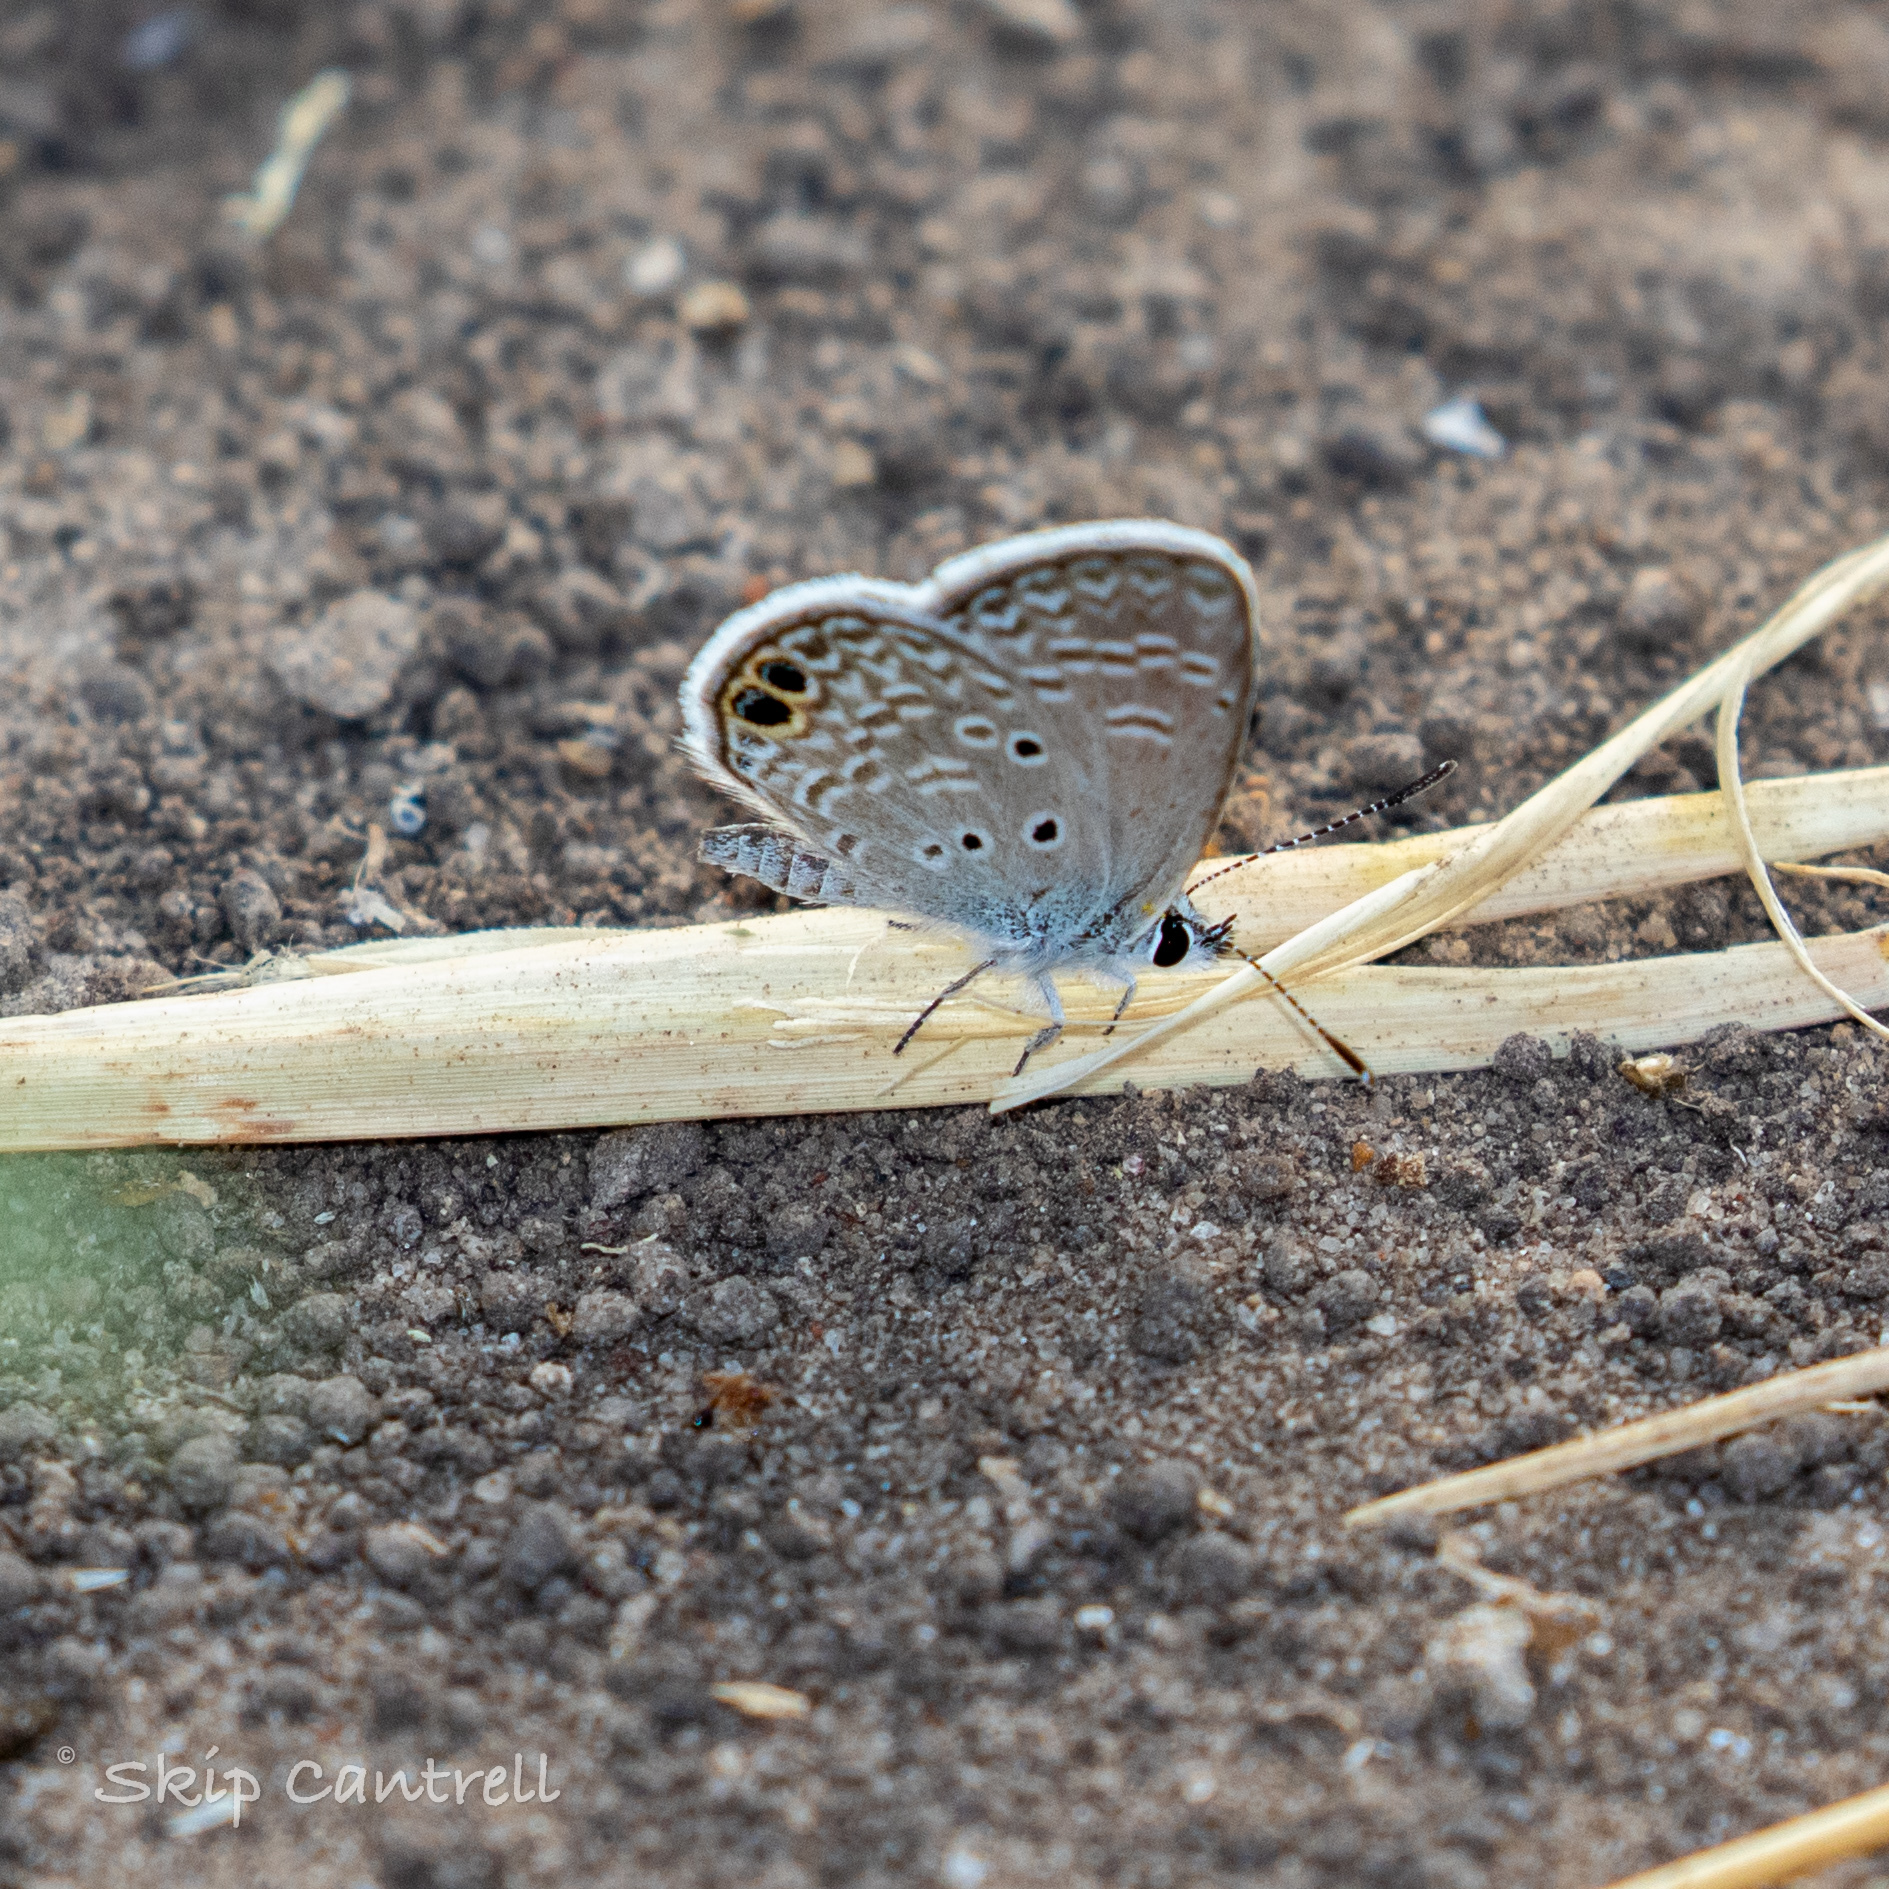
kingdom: Animalia
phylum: Arthropoda
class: Insecta
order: Lepidoptera
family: Lycaenidae
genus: Hemiargus
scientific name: Hemiargus ceraunus
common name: Ceraunus blue
